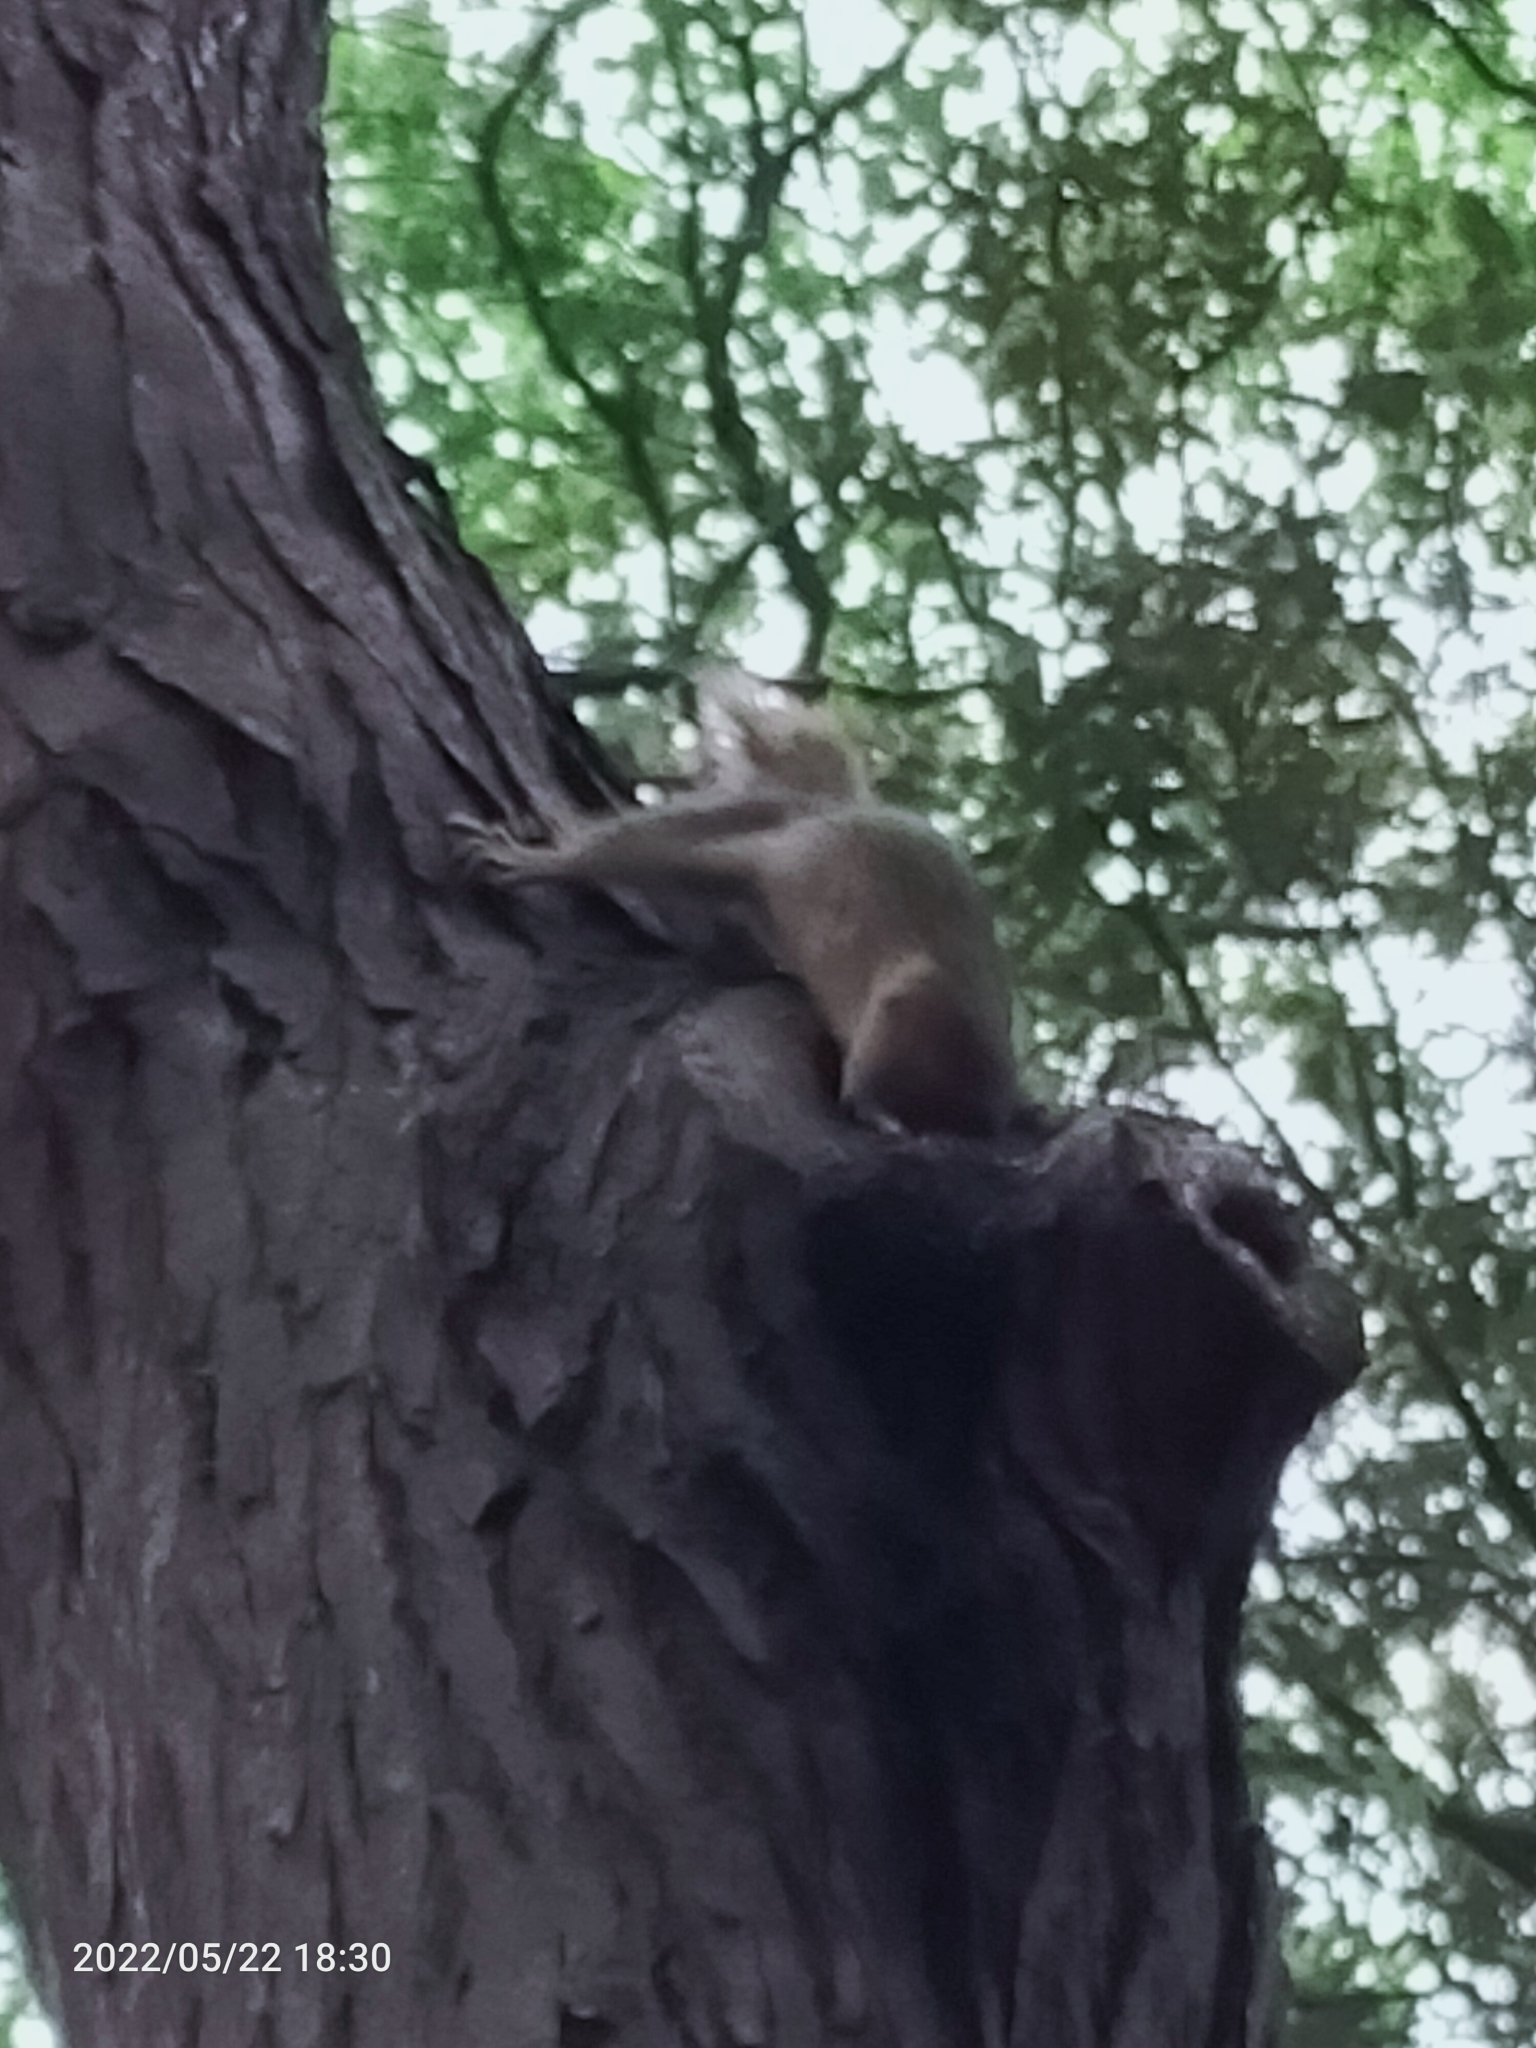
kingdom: Animalia
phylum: Chordata
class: Mammalia
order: Rodentia
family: Sciuridae
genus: Sciurus
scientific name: Sciurus anomalus
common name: Caucasian squirrel
